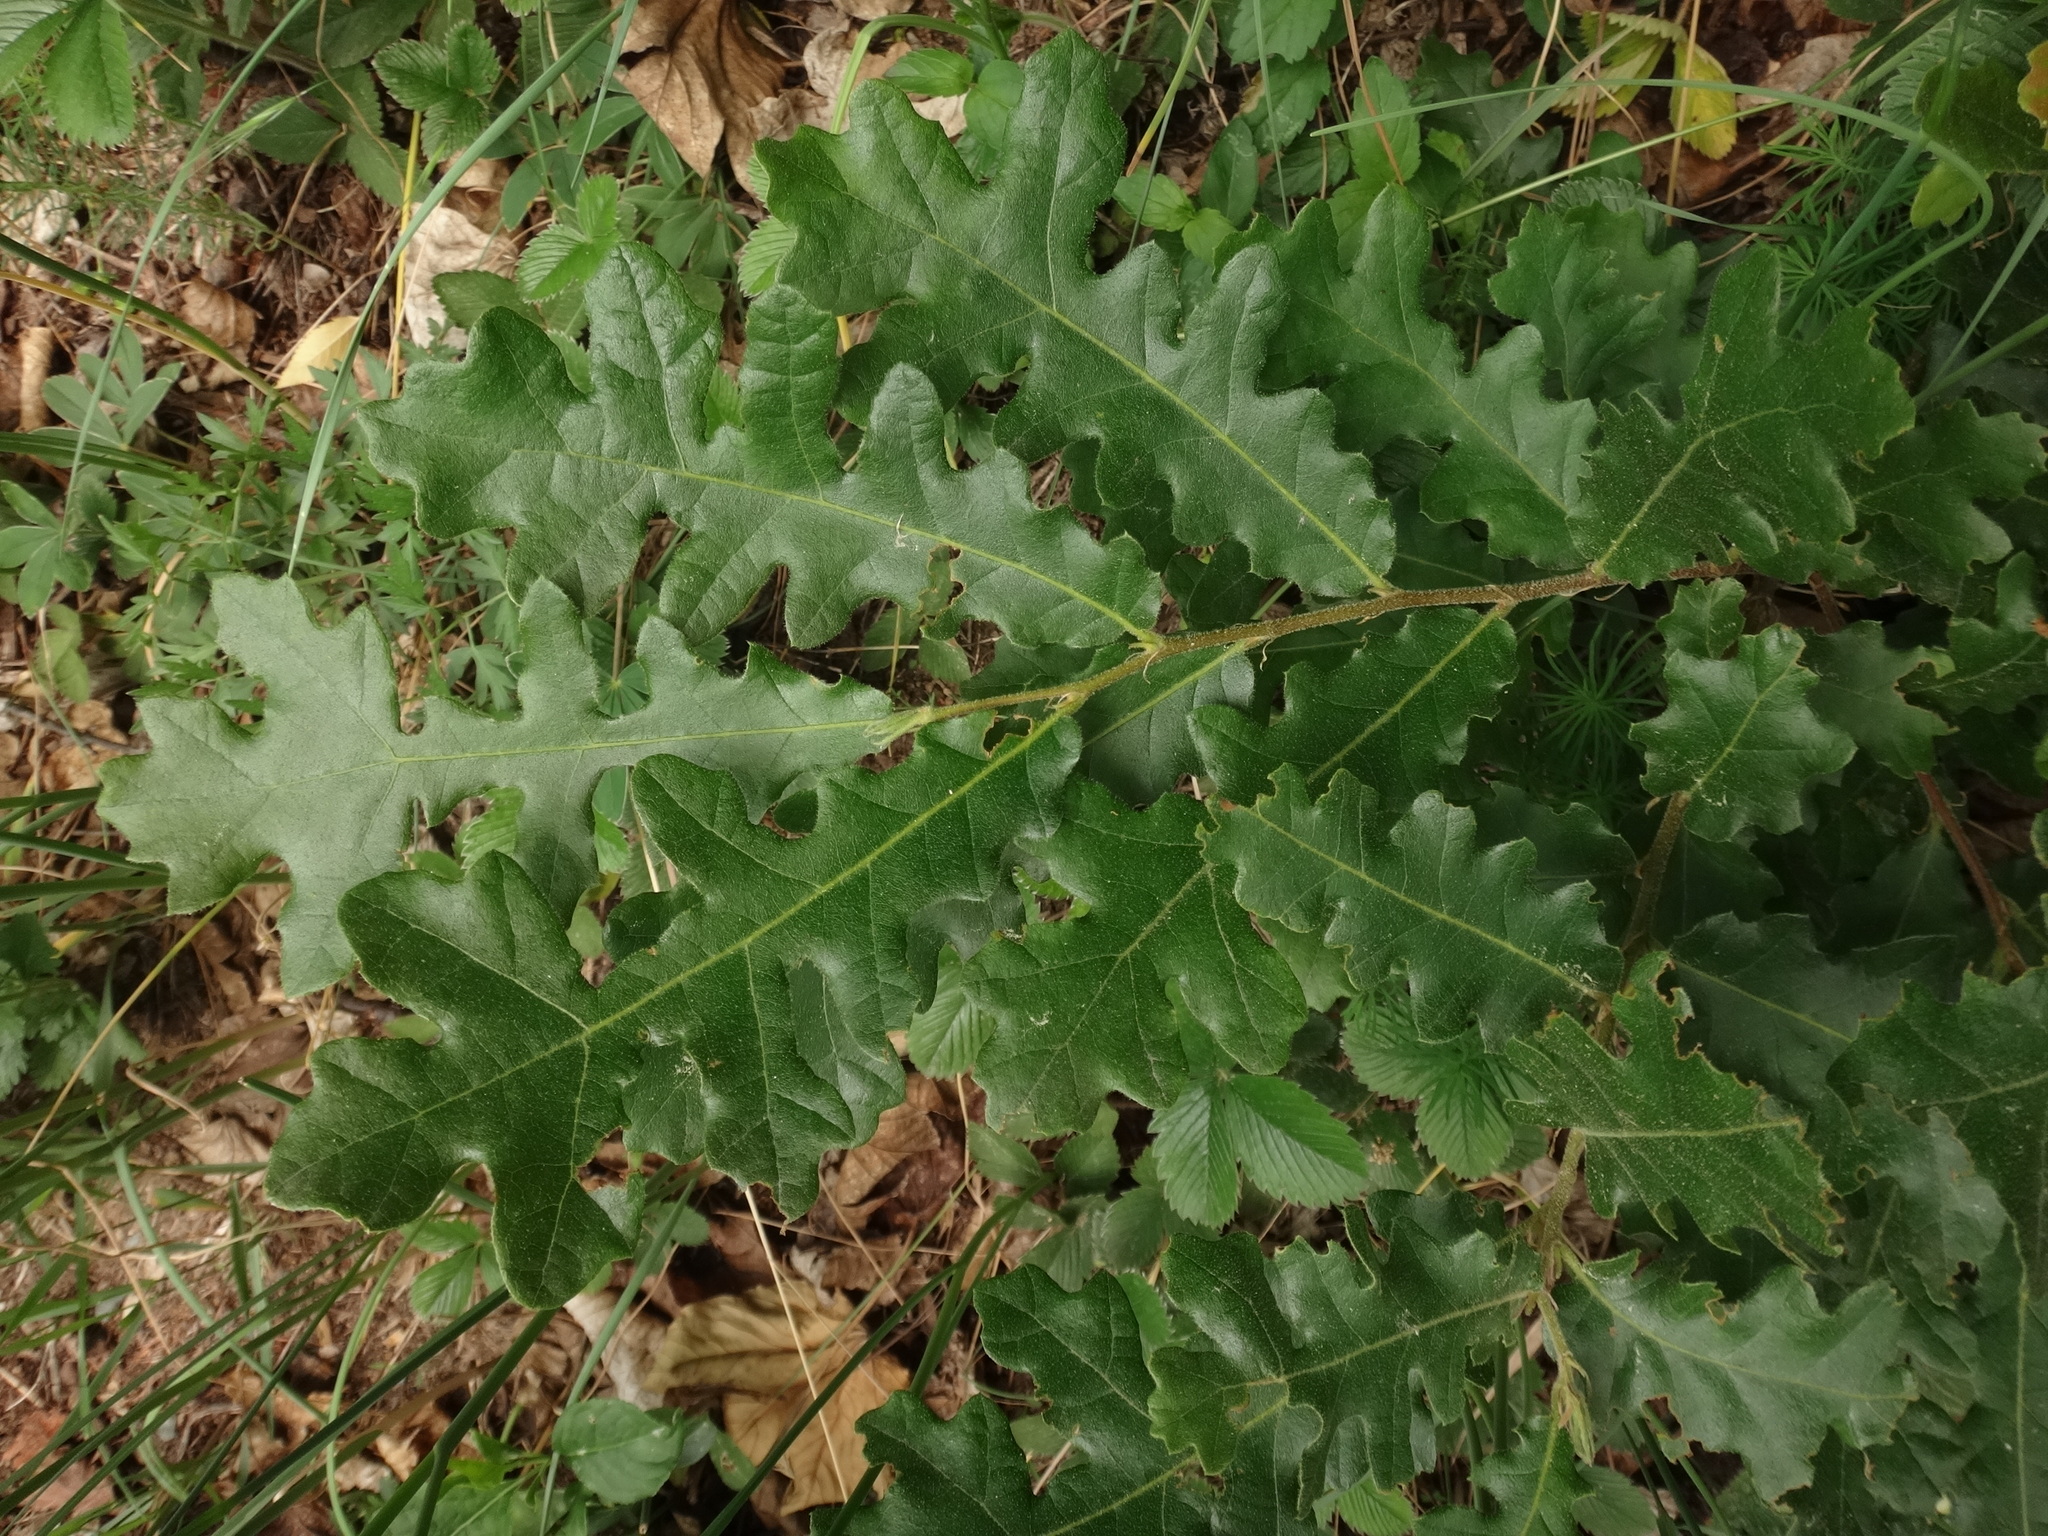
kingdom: Plantae
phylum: Tracheophyta
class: Magnoliopsida
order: Fagales
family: Fagaceae
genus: Quercus
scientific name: Quercus cerris
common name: Turkey oak
